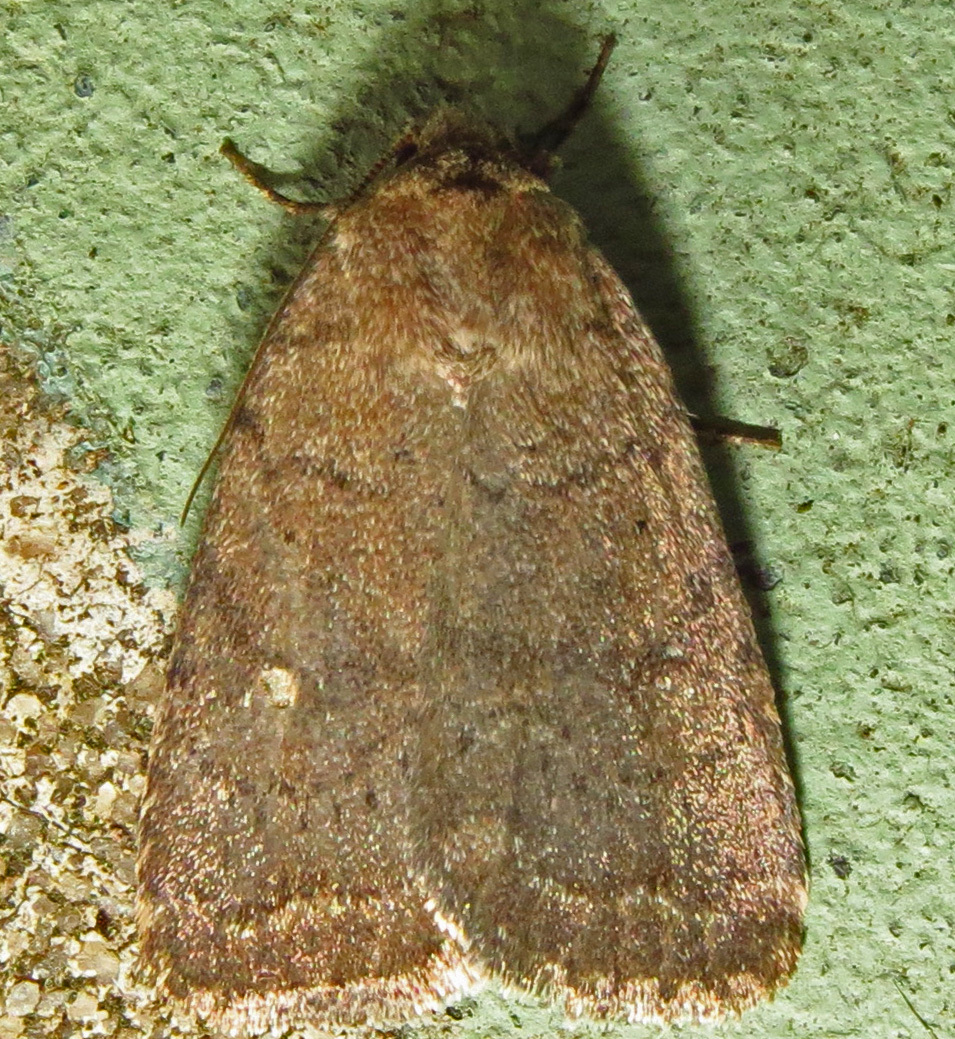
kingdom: Animalia
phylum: Arthropoda
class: Insecta
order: Lepidoptera
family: Noctuidae
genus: Athetis
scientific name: Athetis tarda
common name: Slowpoke moth
